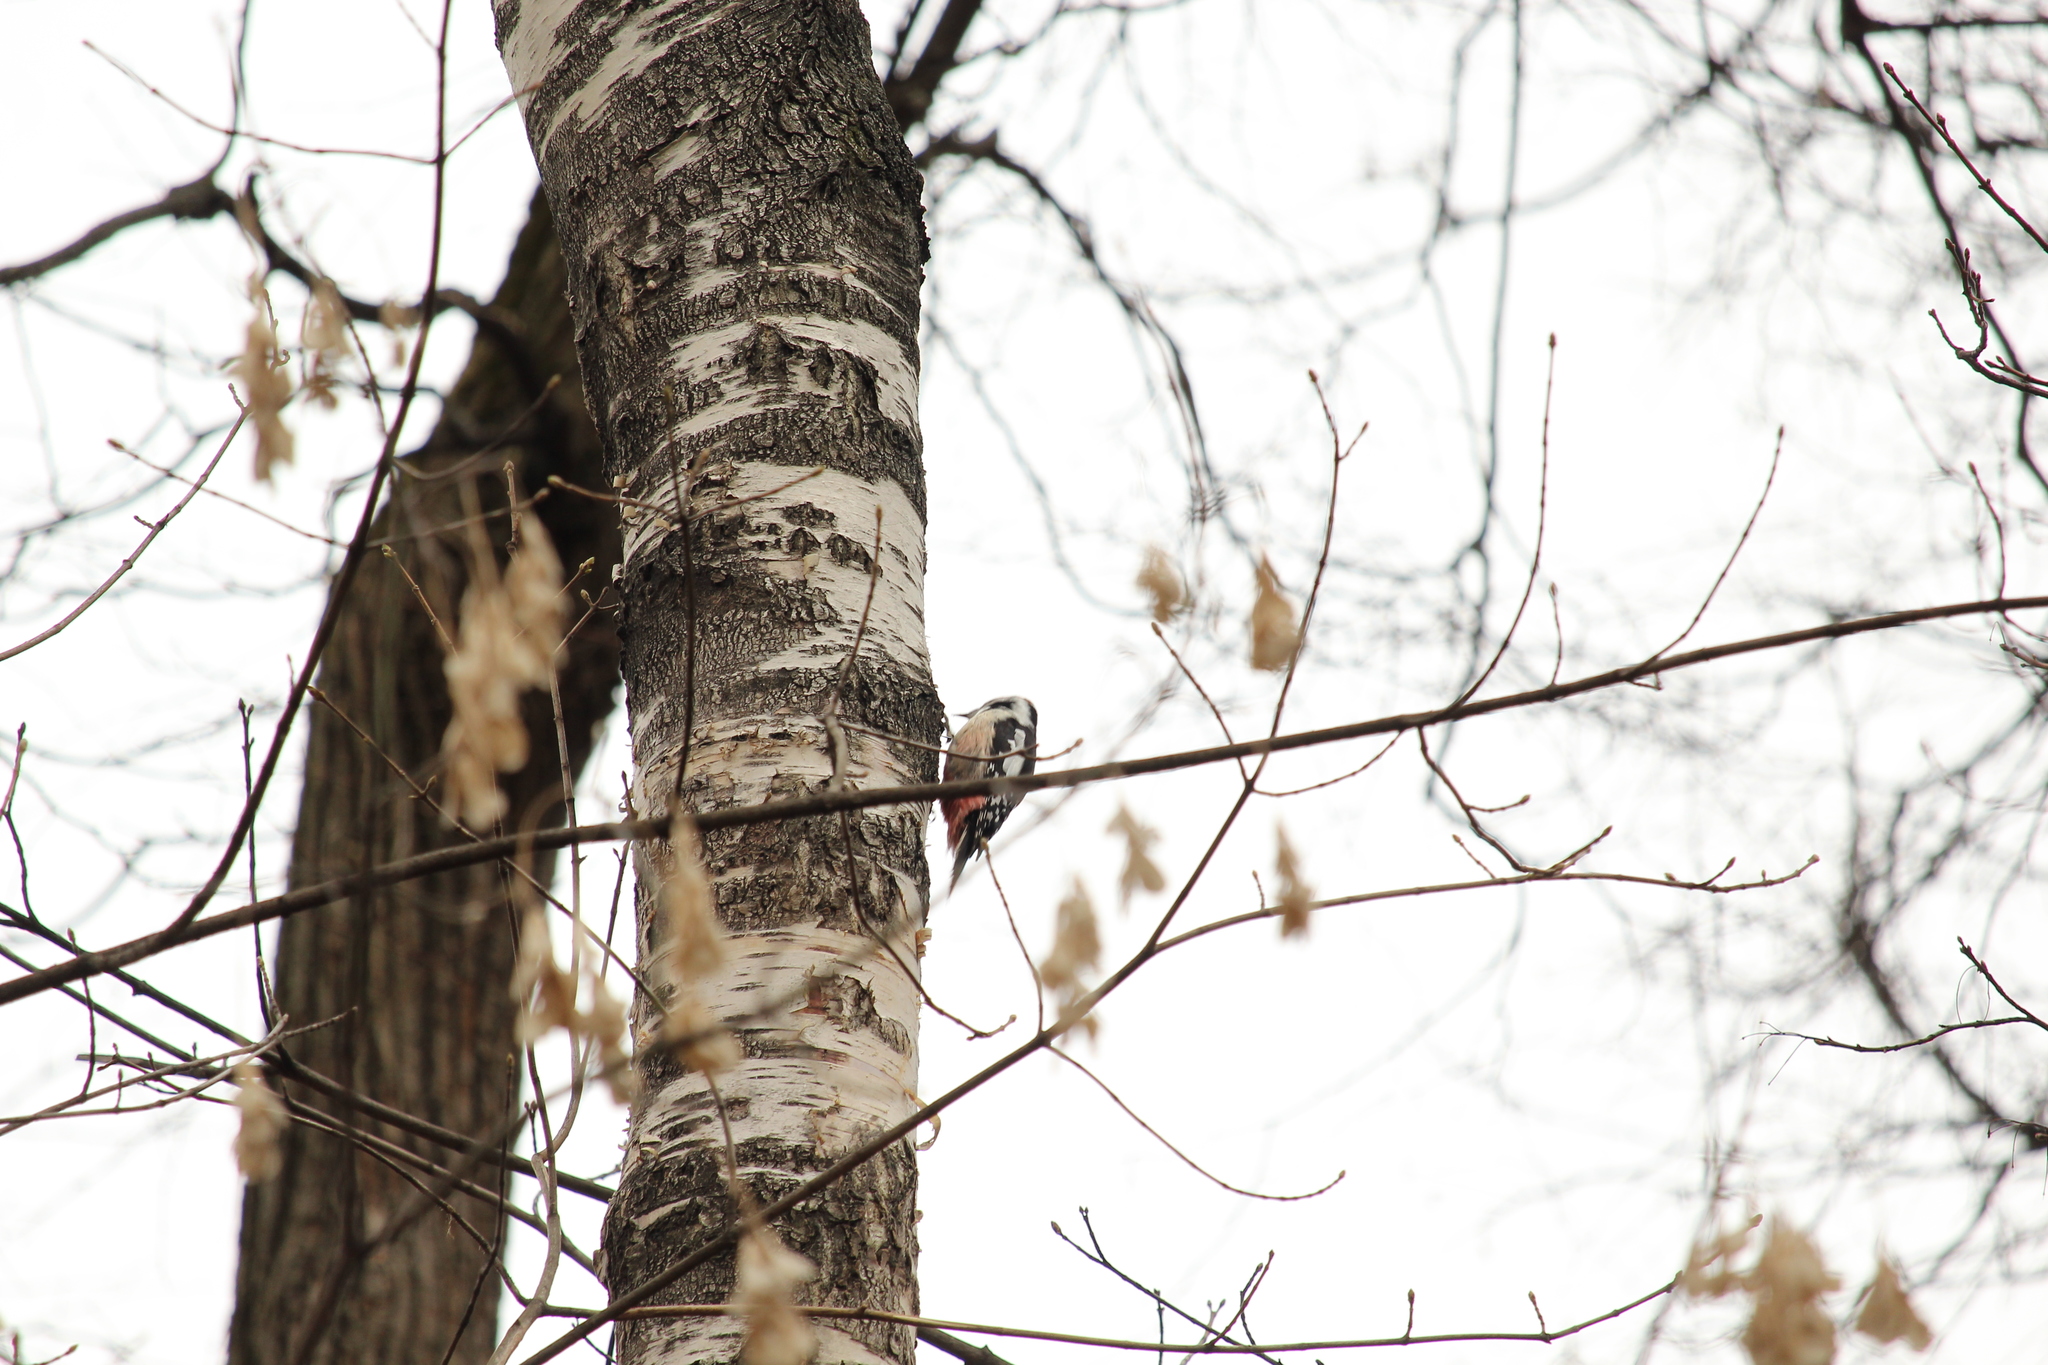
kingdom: Animalia
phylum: Chordata
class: Aves
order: Piciformes
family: Picidae
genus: Dendrocoptes
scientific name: Dendrocoptes medius
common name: Middle spotted woodpecker
